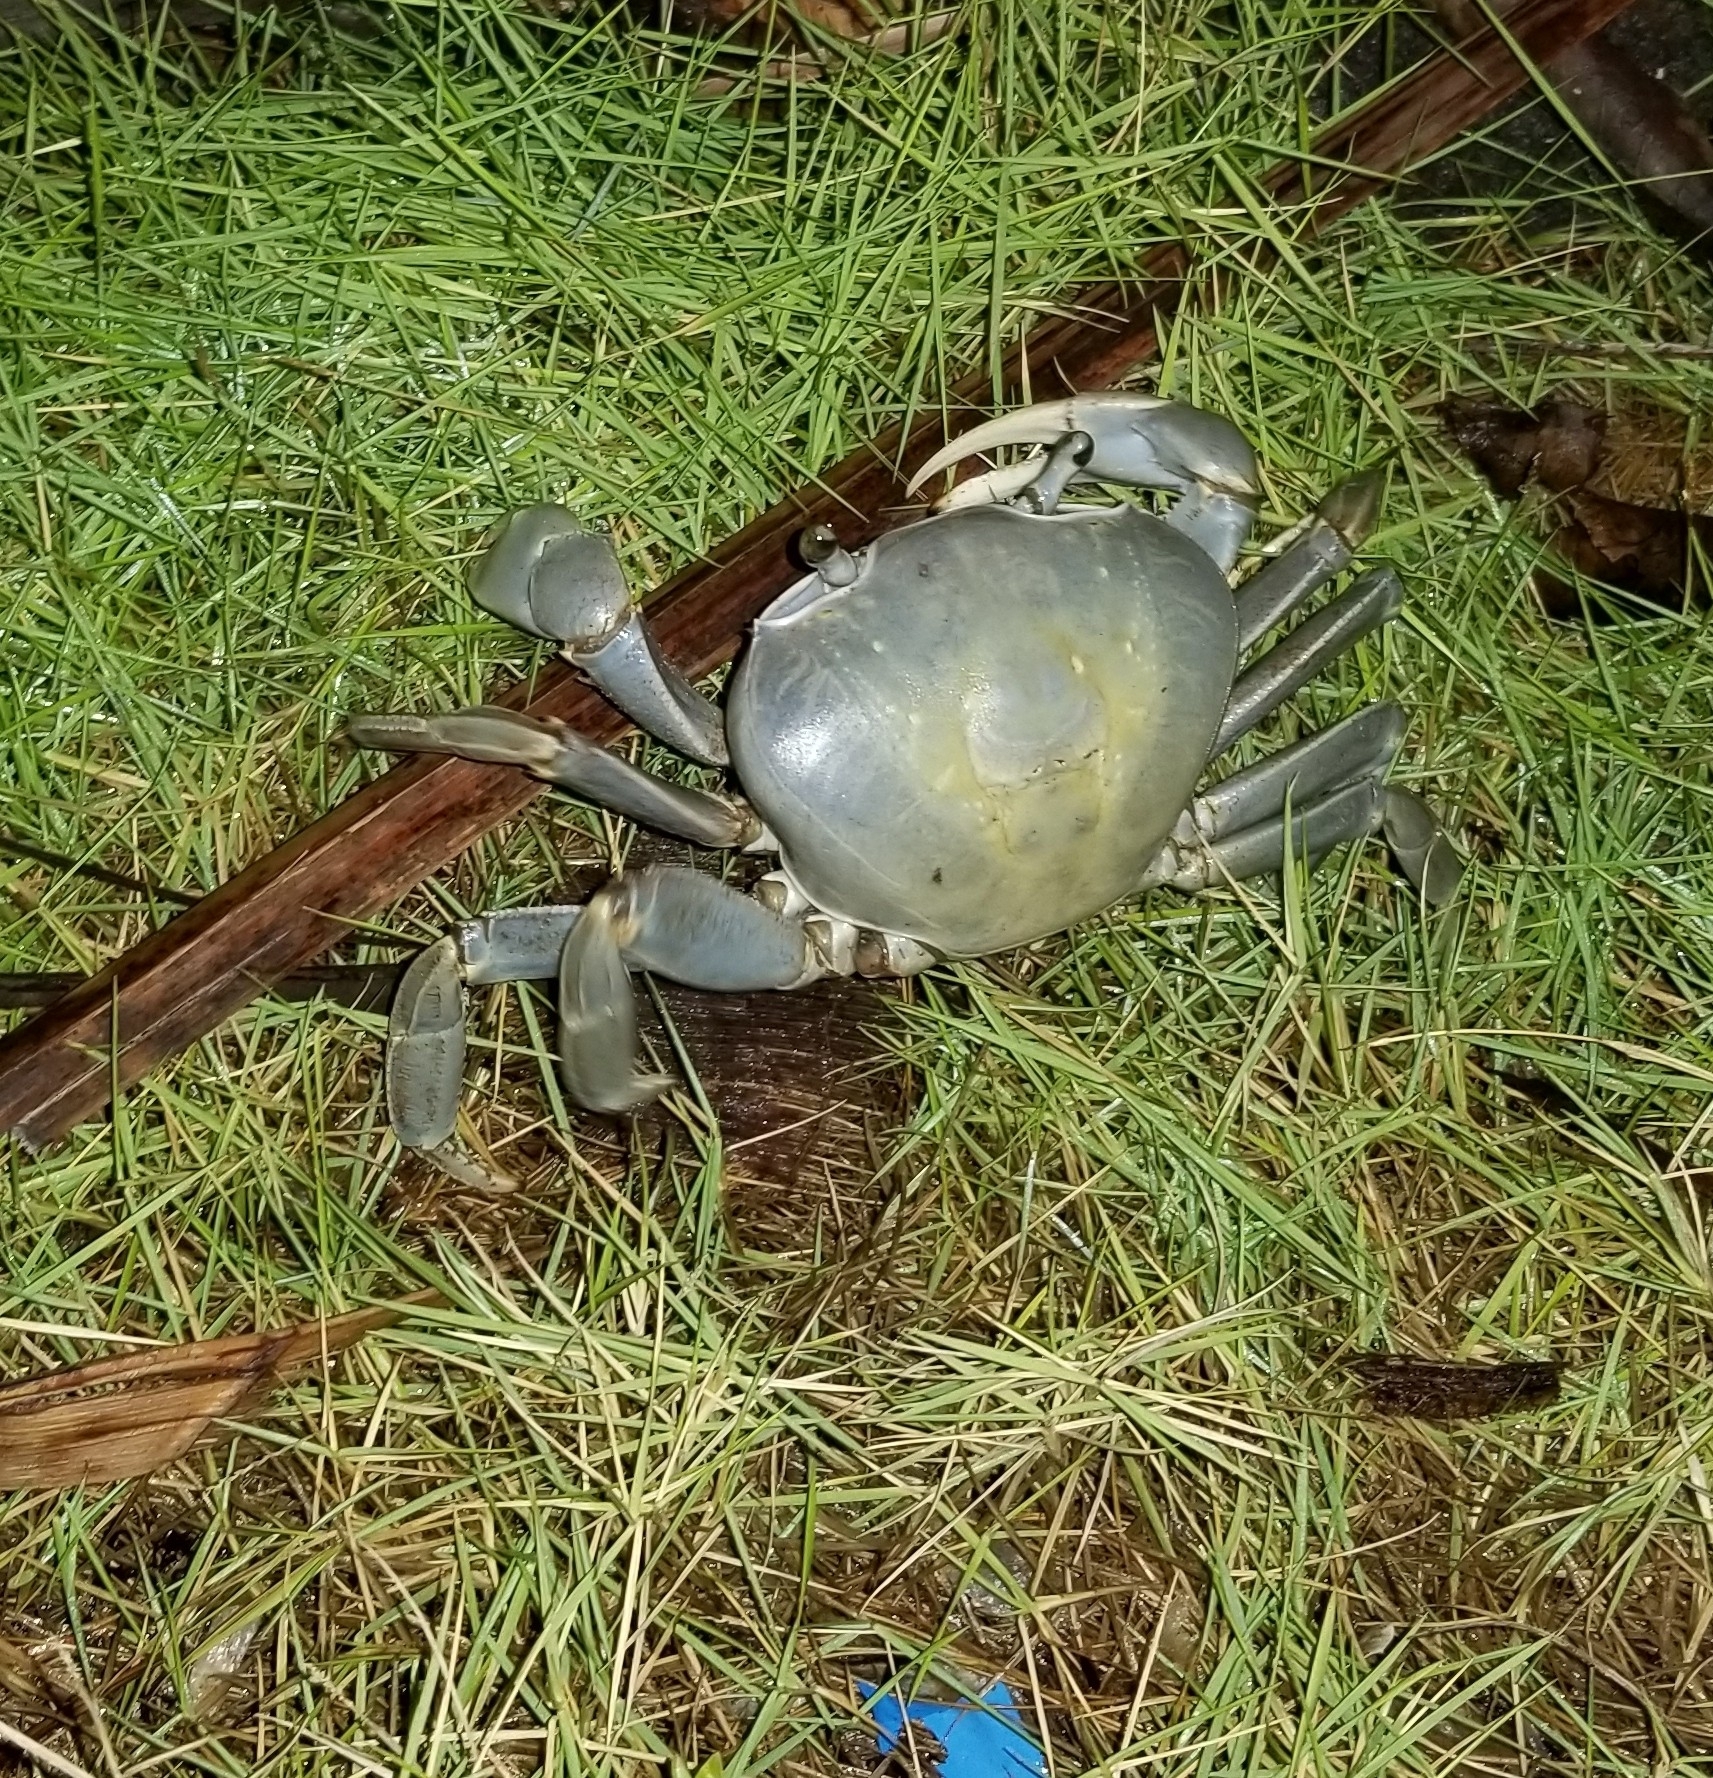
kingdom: Animalia
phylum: Arthropoda
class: Malacostraca
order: Decapoda
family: Gecarcinidae
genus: Cardisoma
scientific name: Cardisoma guanhumi
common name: Great land crab
